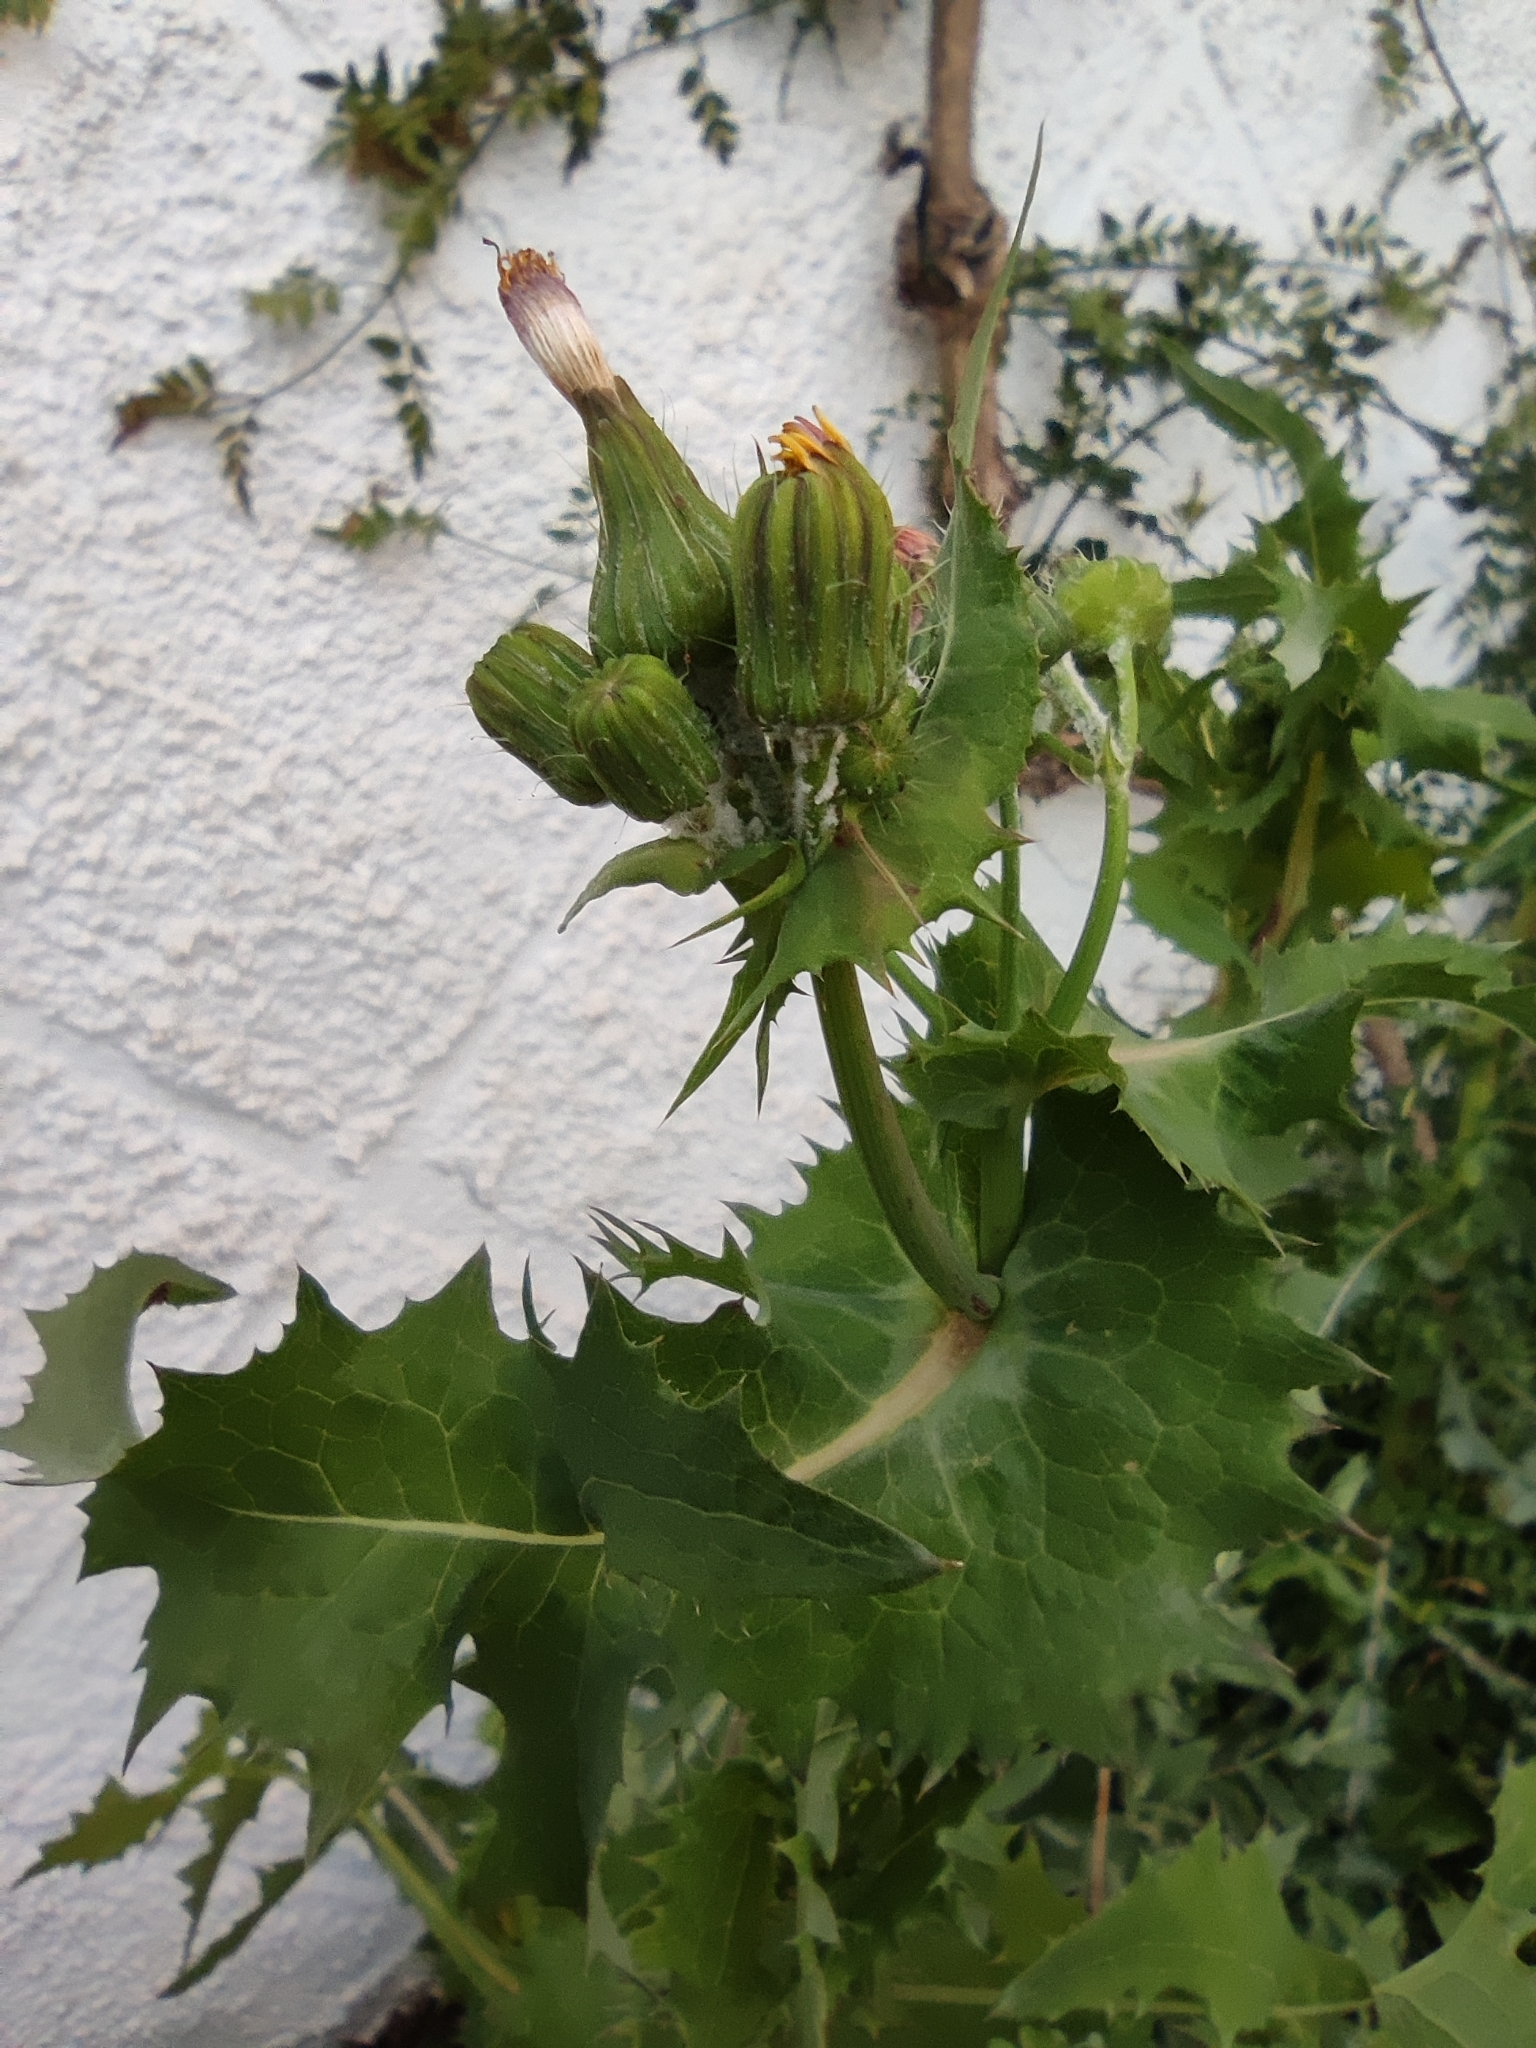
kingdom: Plantae
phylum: Tracheophyta
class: Magnoliopsida
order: Asterales
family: Asteraceae
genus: Sonchus
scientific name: Sonchus oleraceus
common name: Common sowthistle
